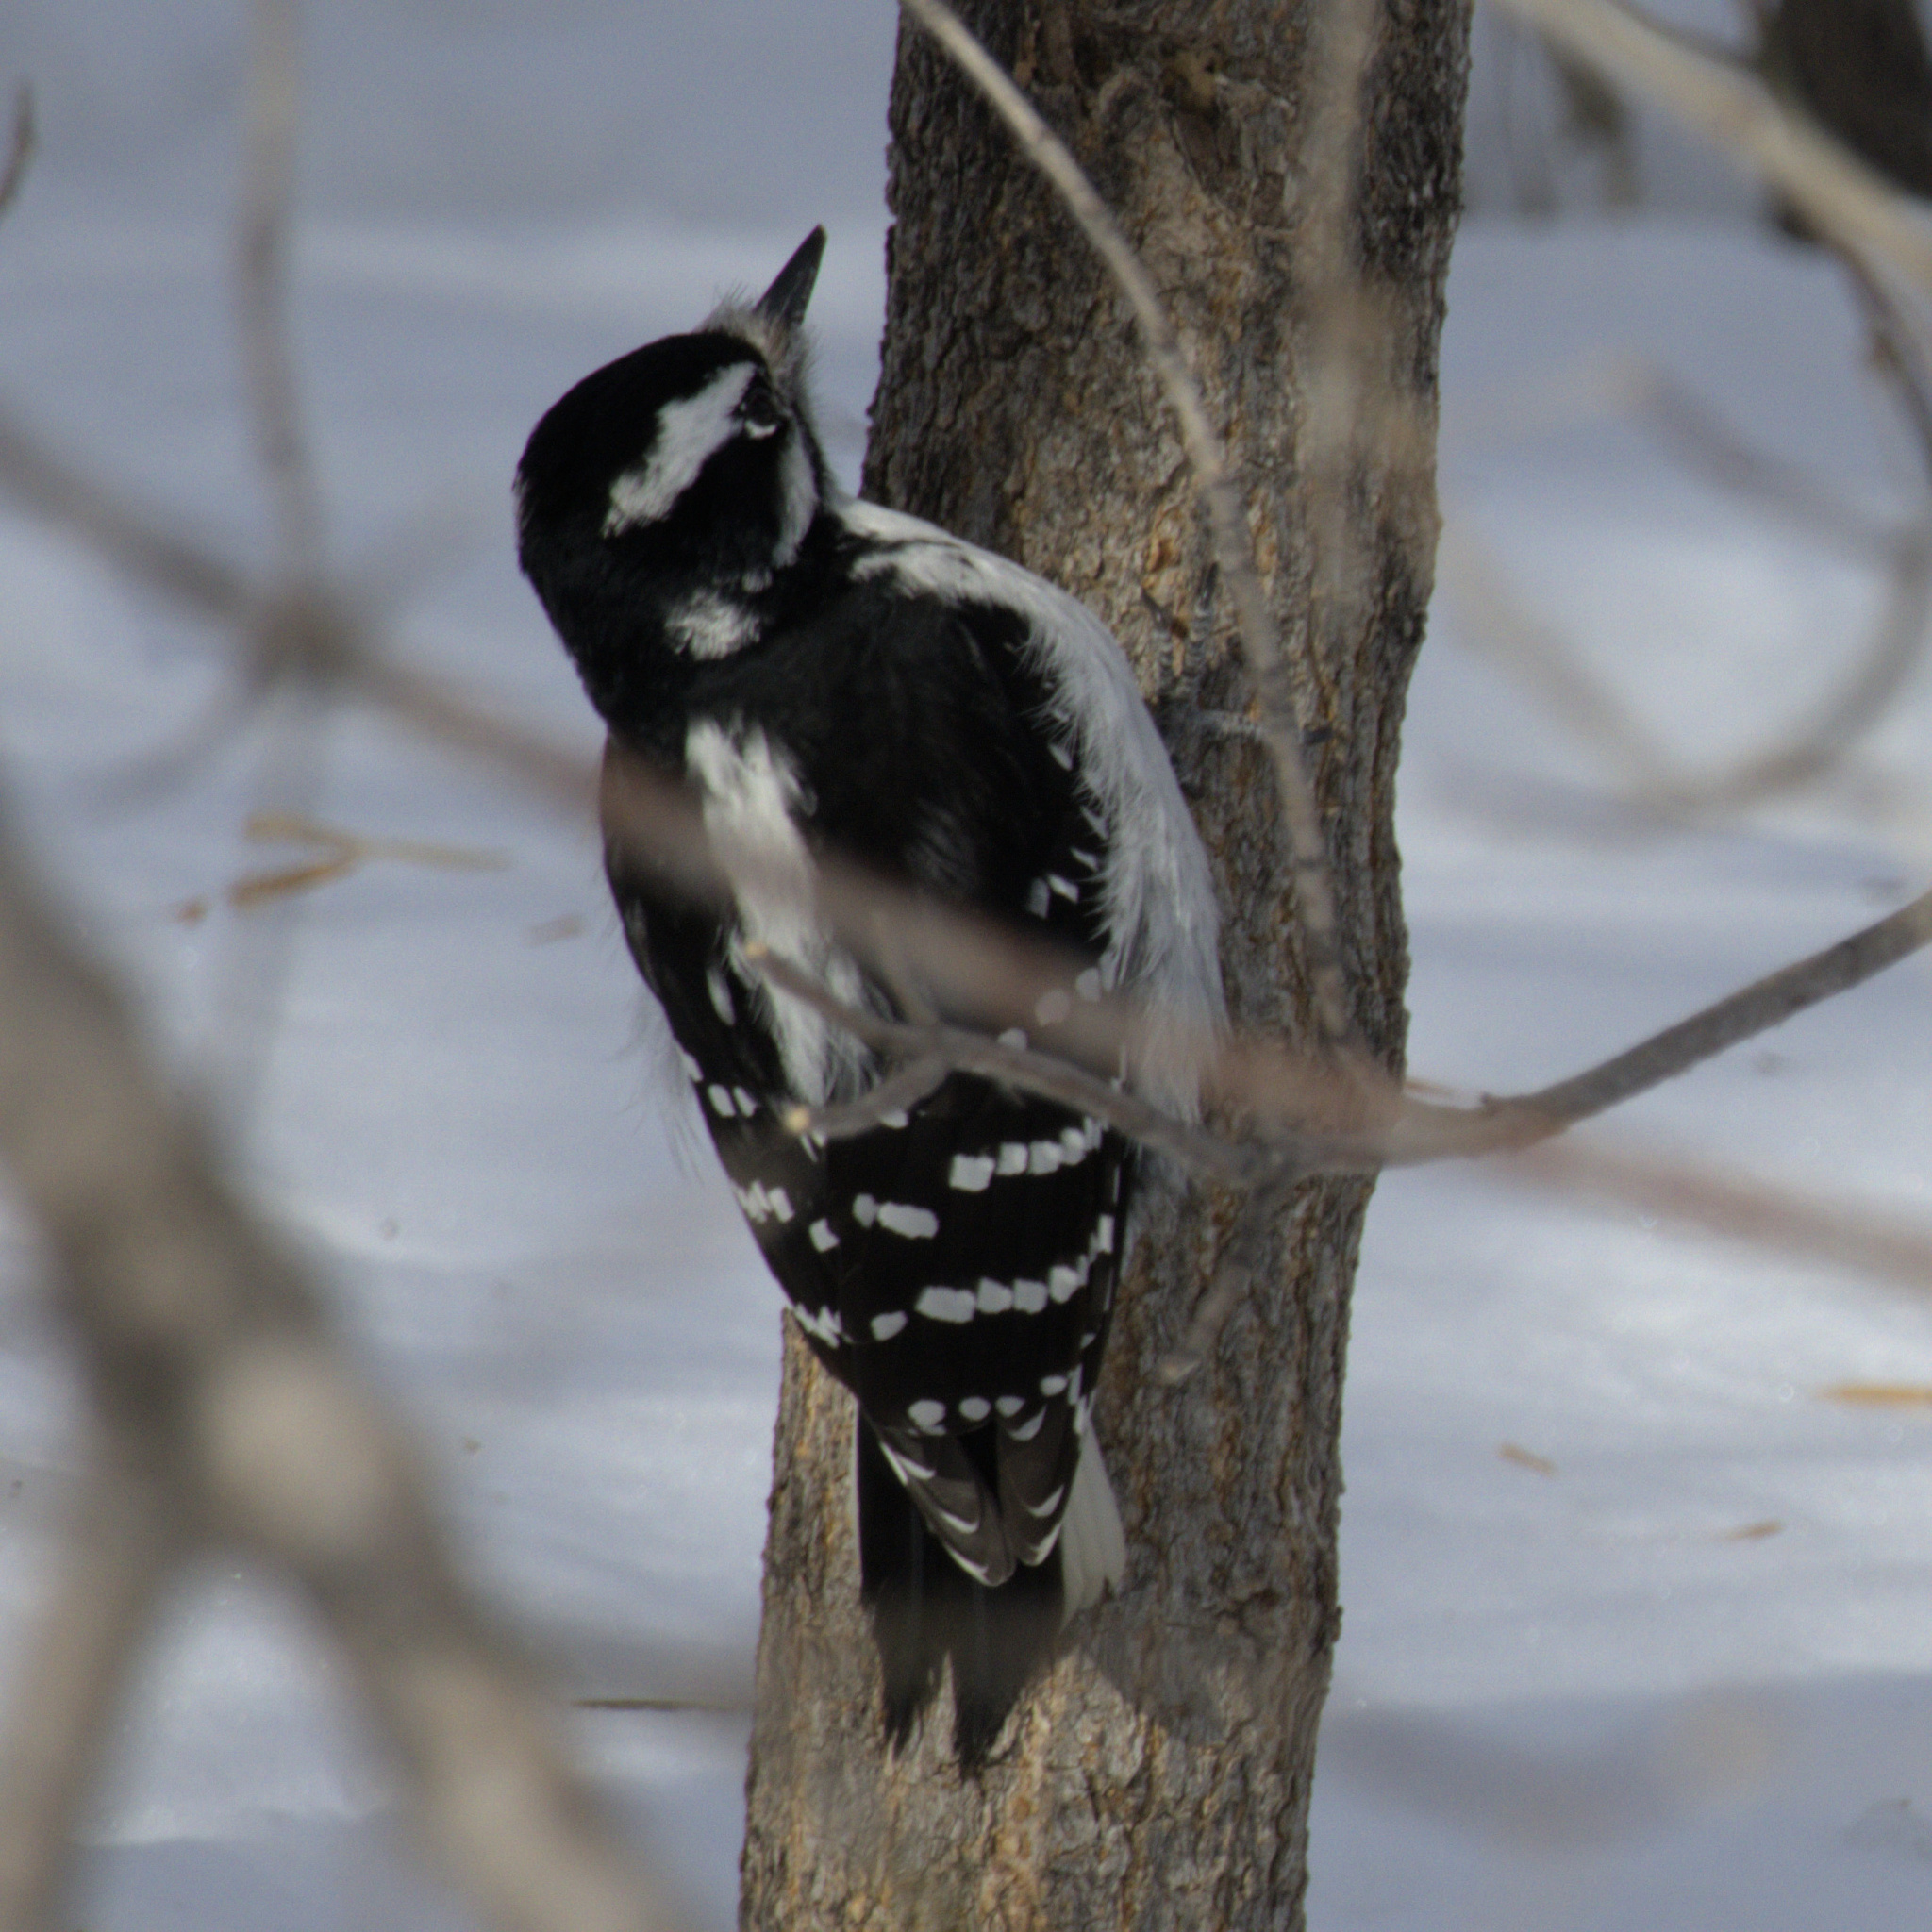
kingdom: Animalia
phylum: Chordata
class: Aves
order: Piciformes
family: Picidae
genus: Leuconotopicus
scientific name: Leuconotopicus villosus
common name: Hairy woodpecker
